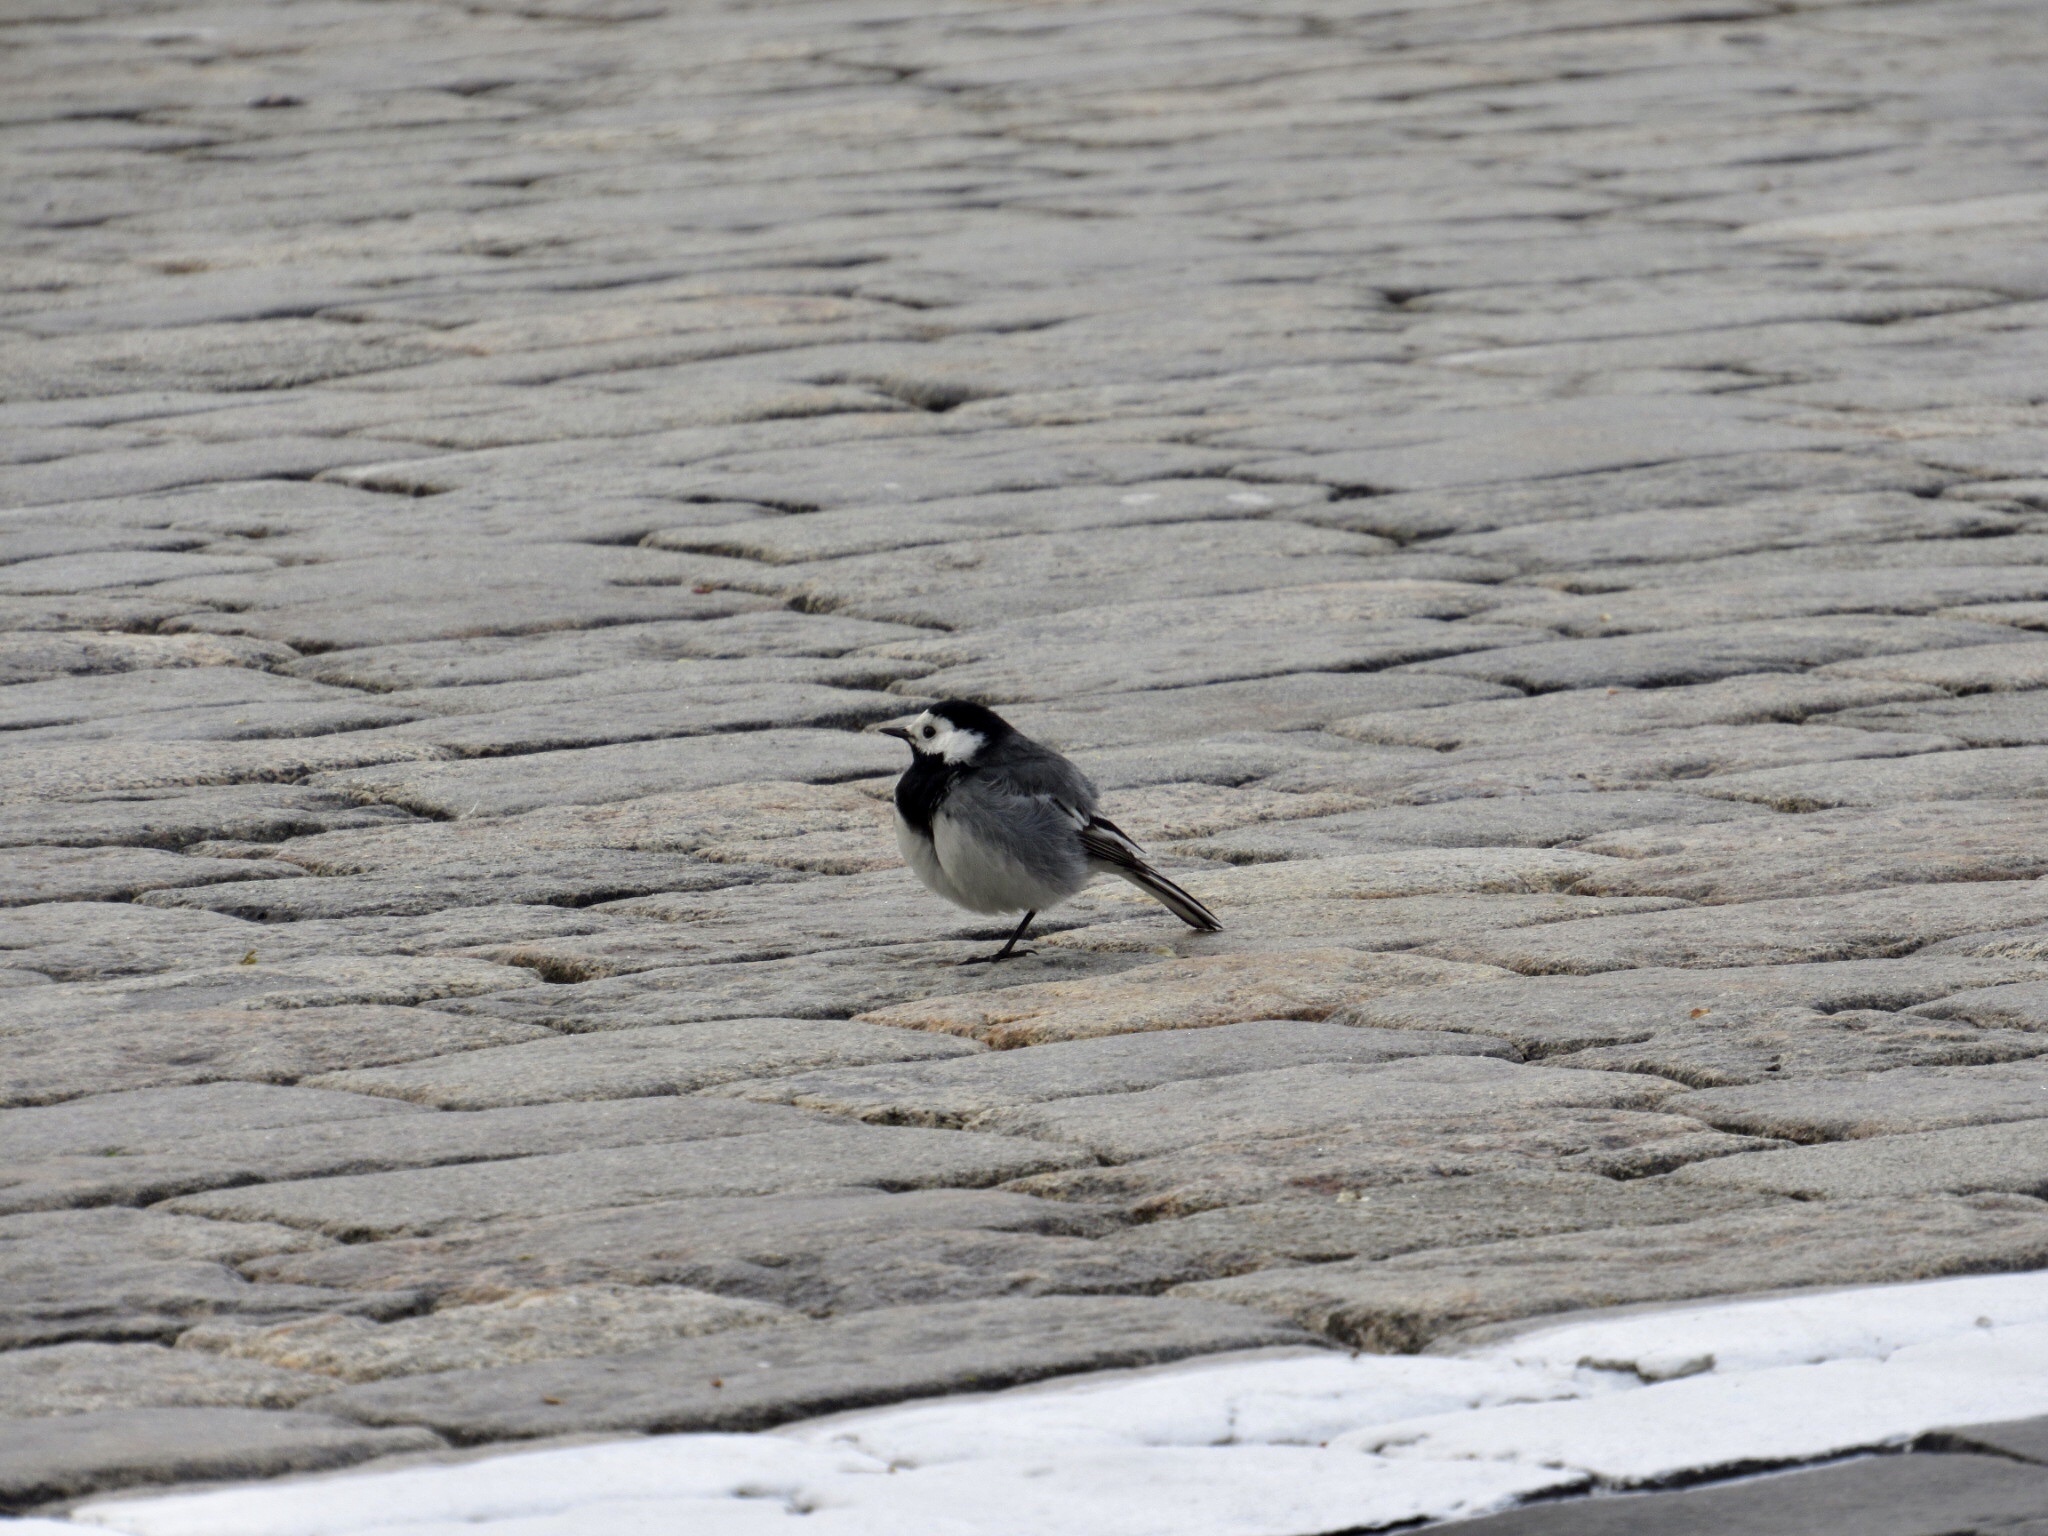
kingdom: Animalia
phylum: Chordata
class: Aves
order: Passeriformes
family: Motacillidae
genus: Motacilla
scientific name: Motacilla alba
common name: White wagtail
